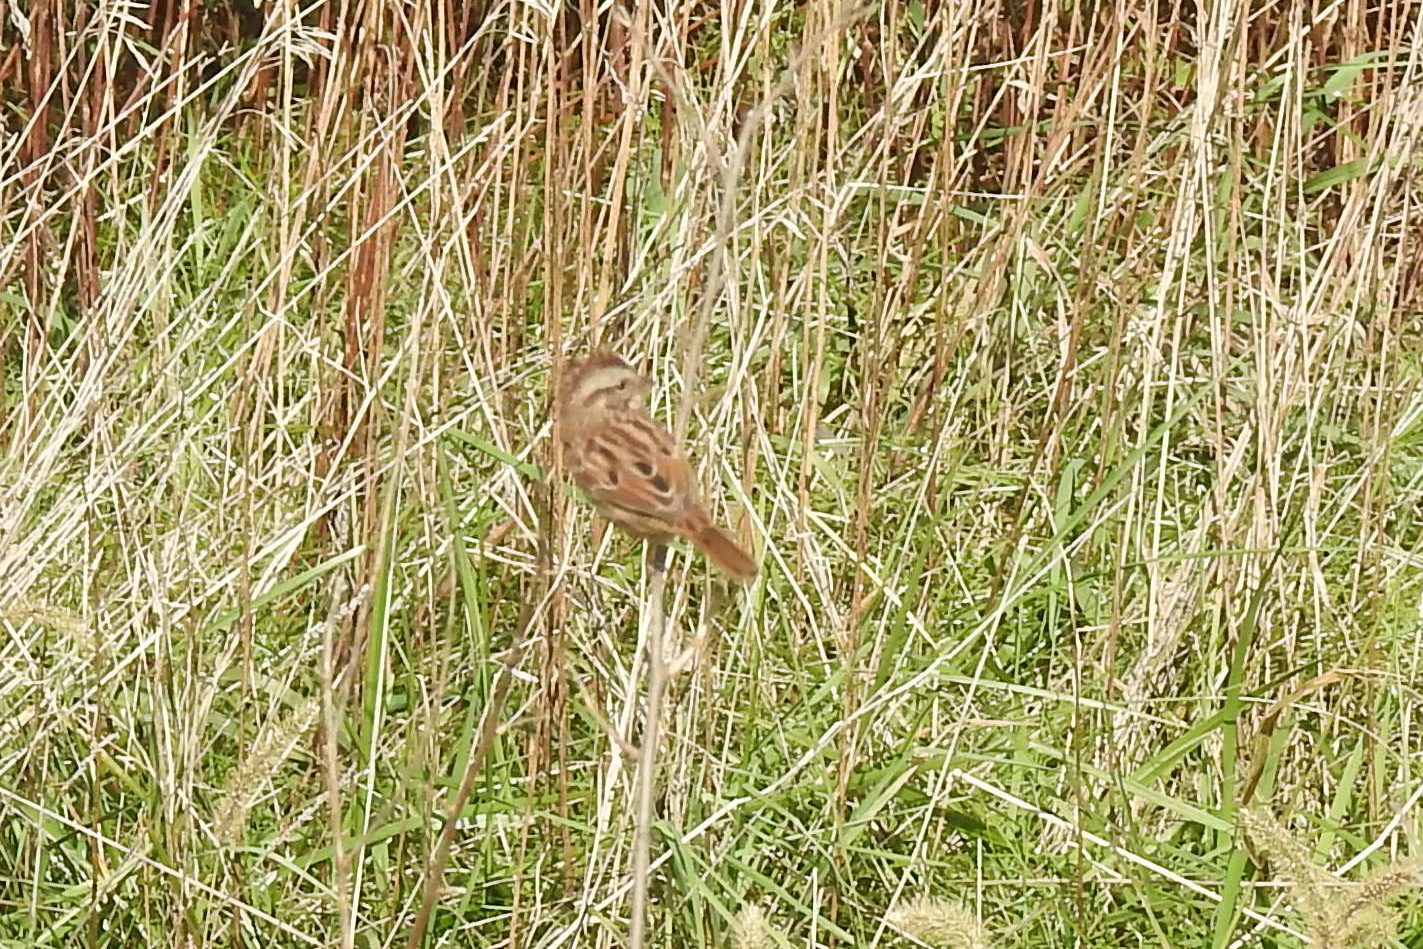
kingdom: Animalia
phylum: Chordata
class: Aves
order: Passeriformes
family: Passerellidae
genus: Melospiza
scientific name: Melospiza melodia
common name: Song sparrow
